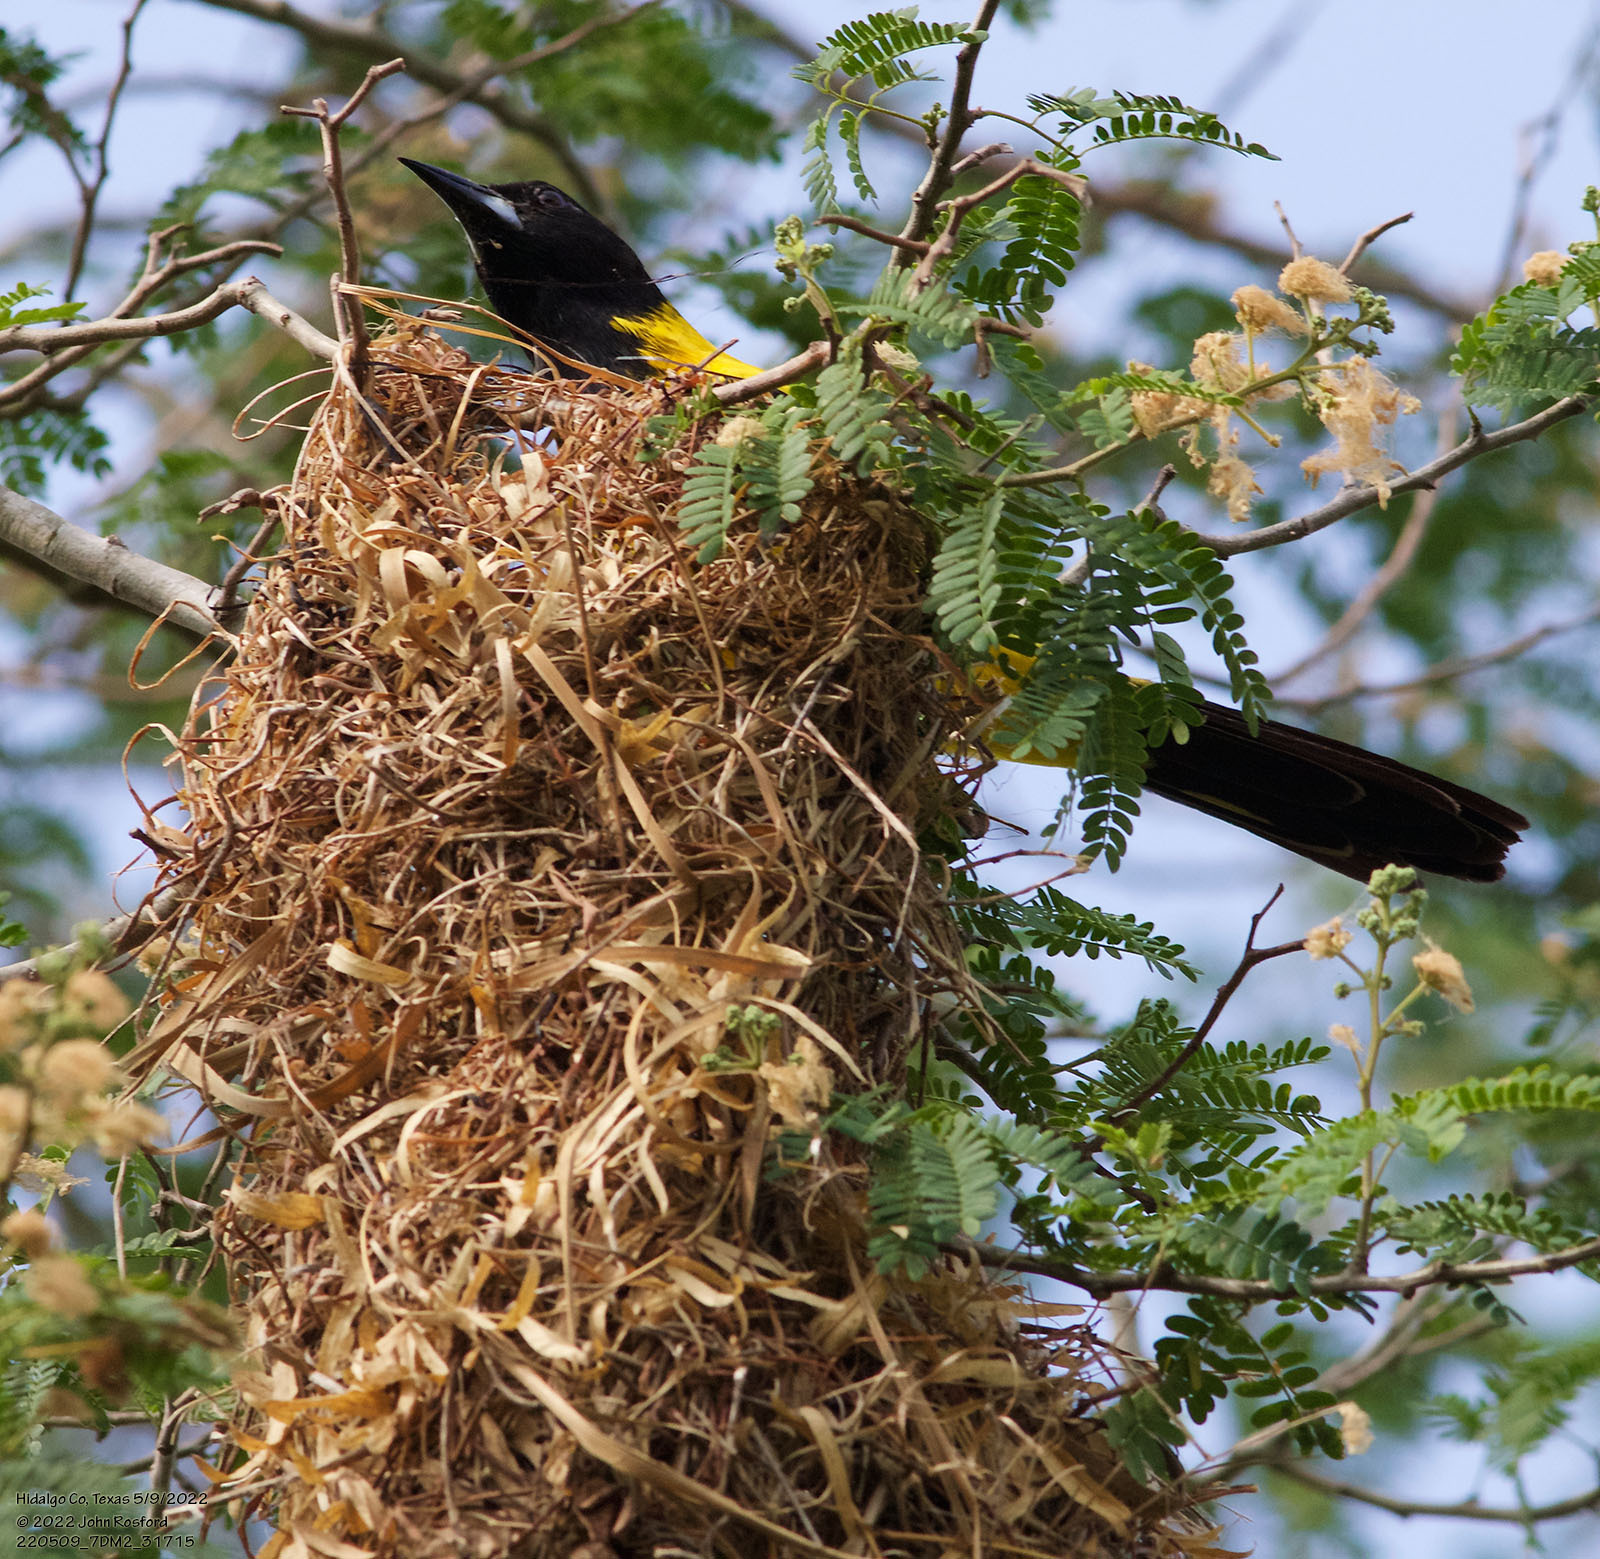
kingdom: Animalia
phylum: Chordata
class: Aves
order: Passeriformes
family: Icteridae
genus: Icterus
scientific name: Icterus graduacauda
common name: Audubon's oriole
